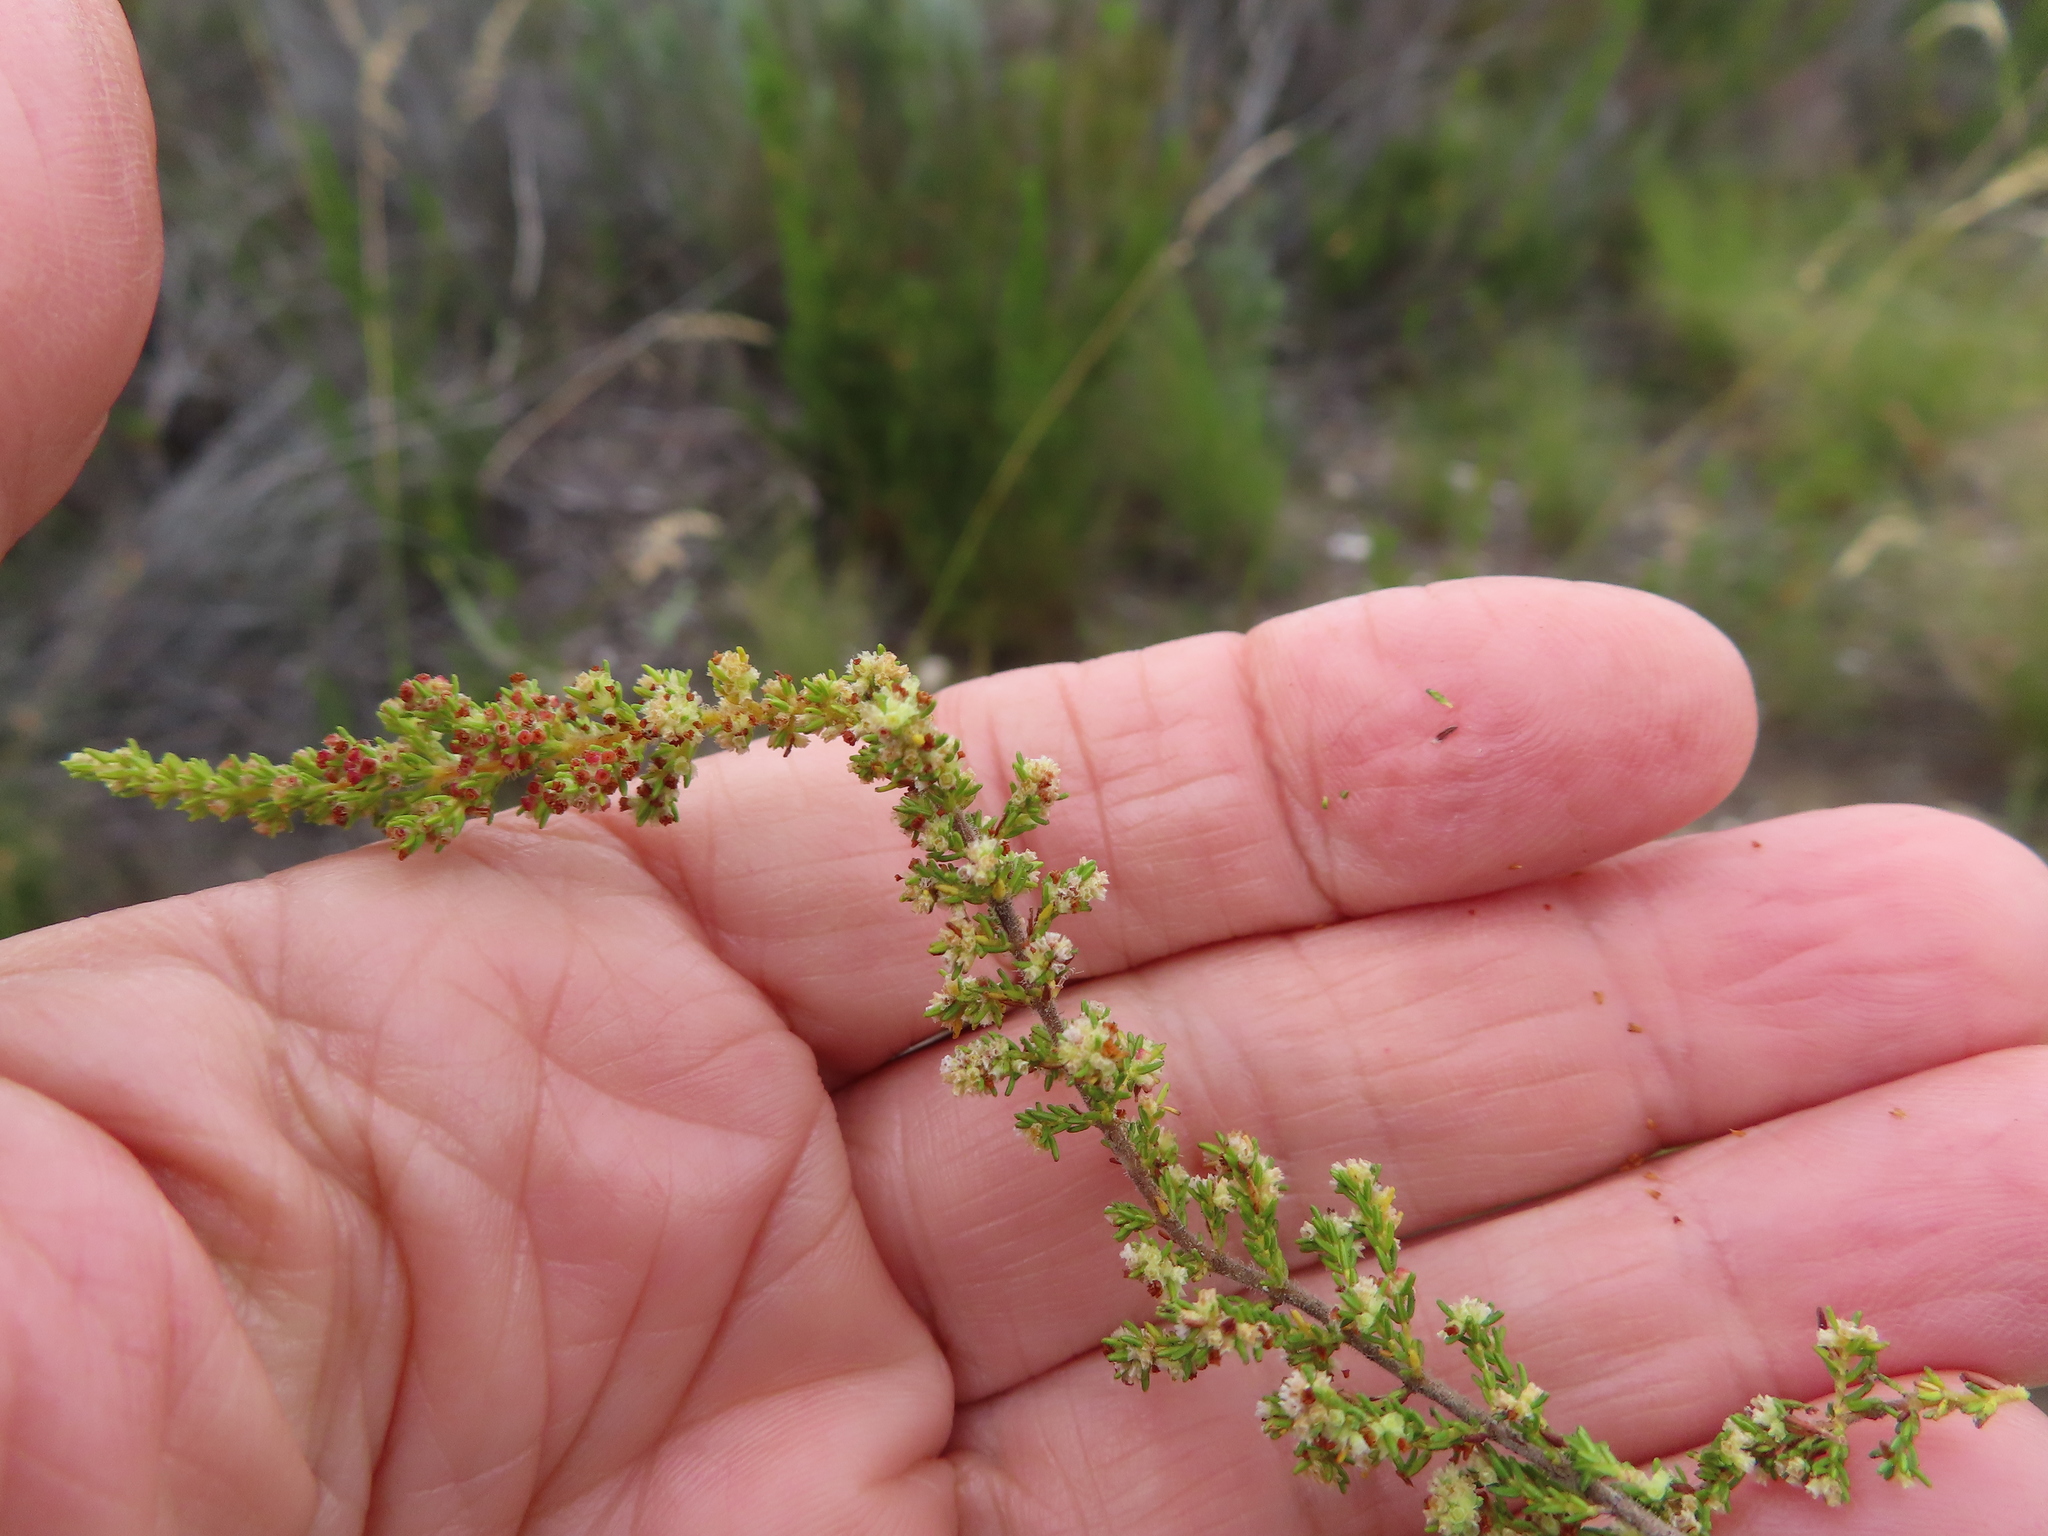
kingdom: Plantae
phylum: Tracheophyta
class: Magnoliopsida
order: Ericales
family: Ericaceae
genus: Erica
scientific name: Erica muscosa
